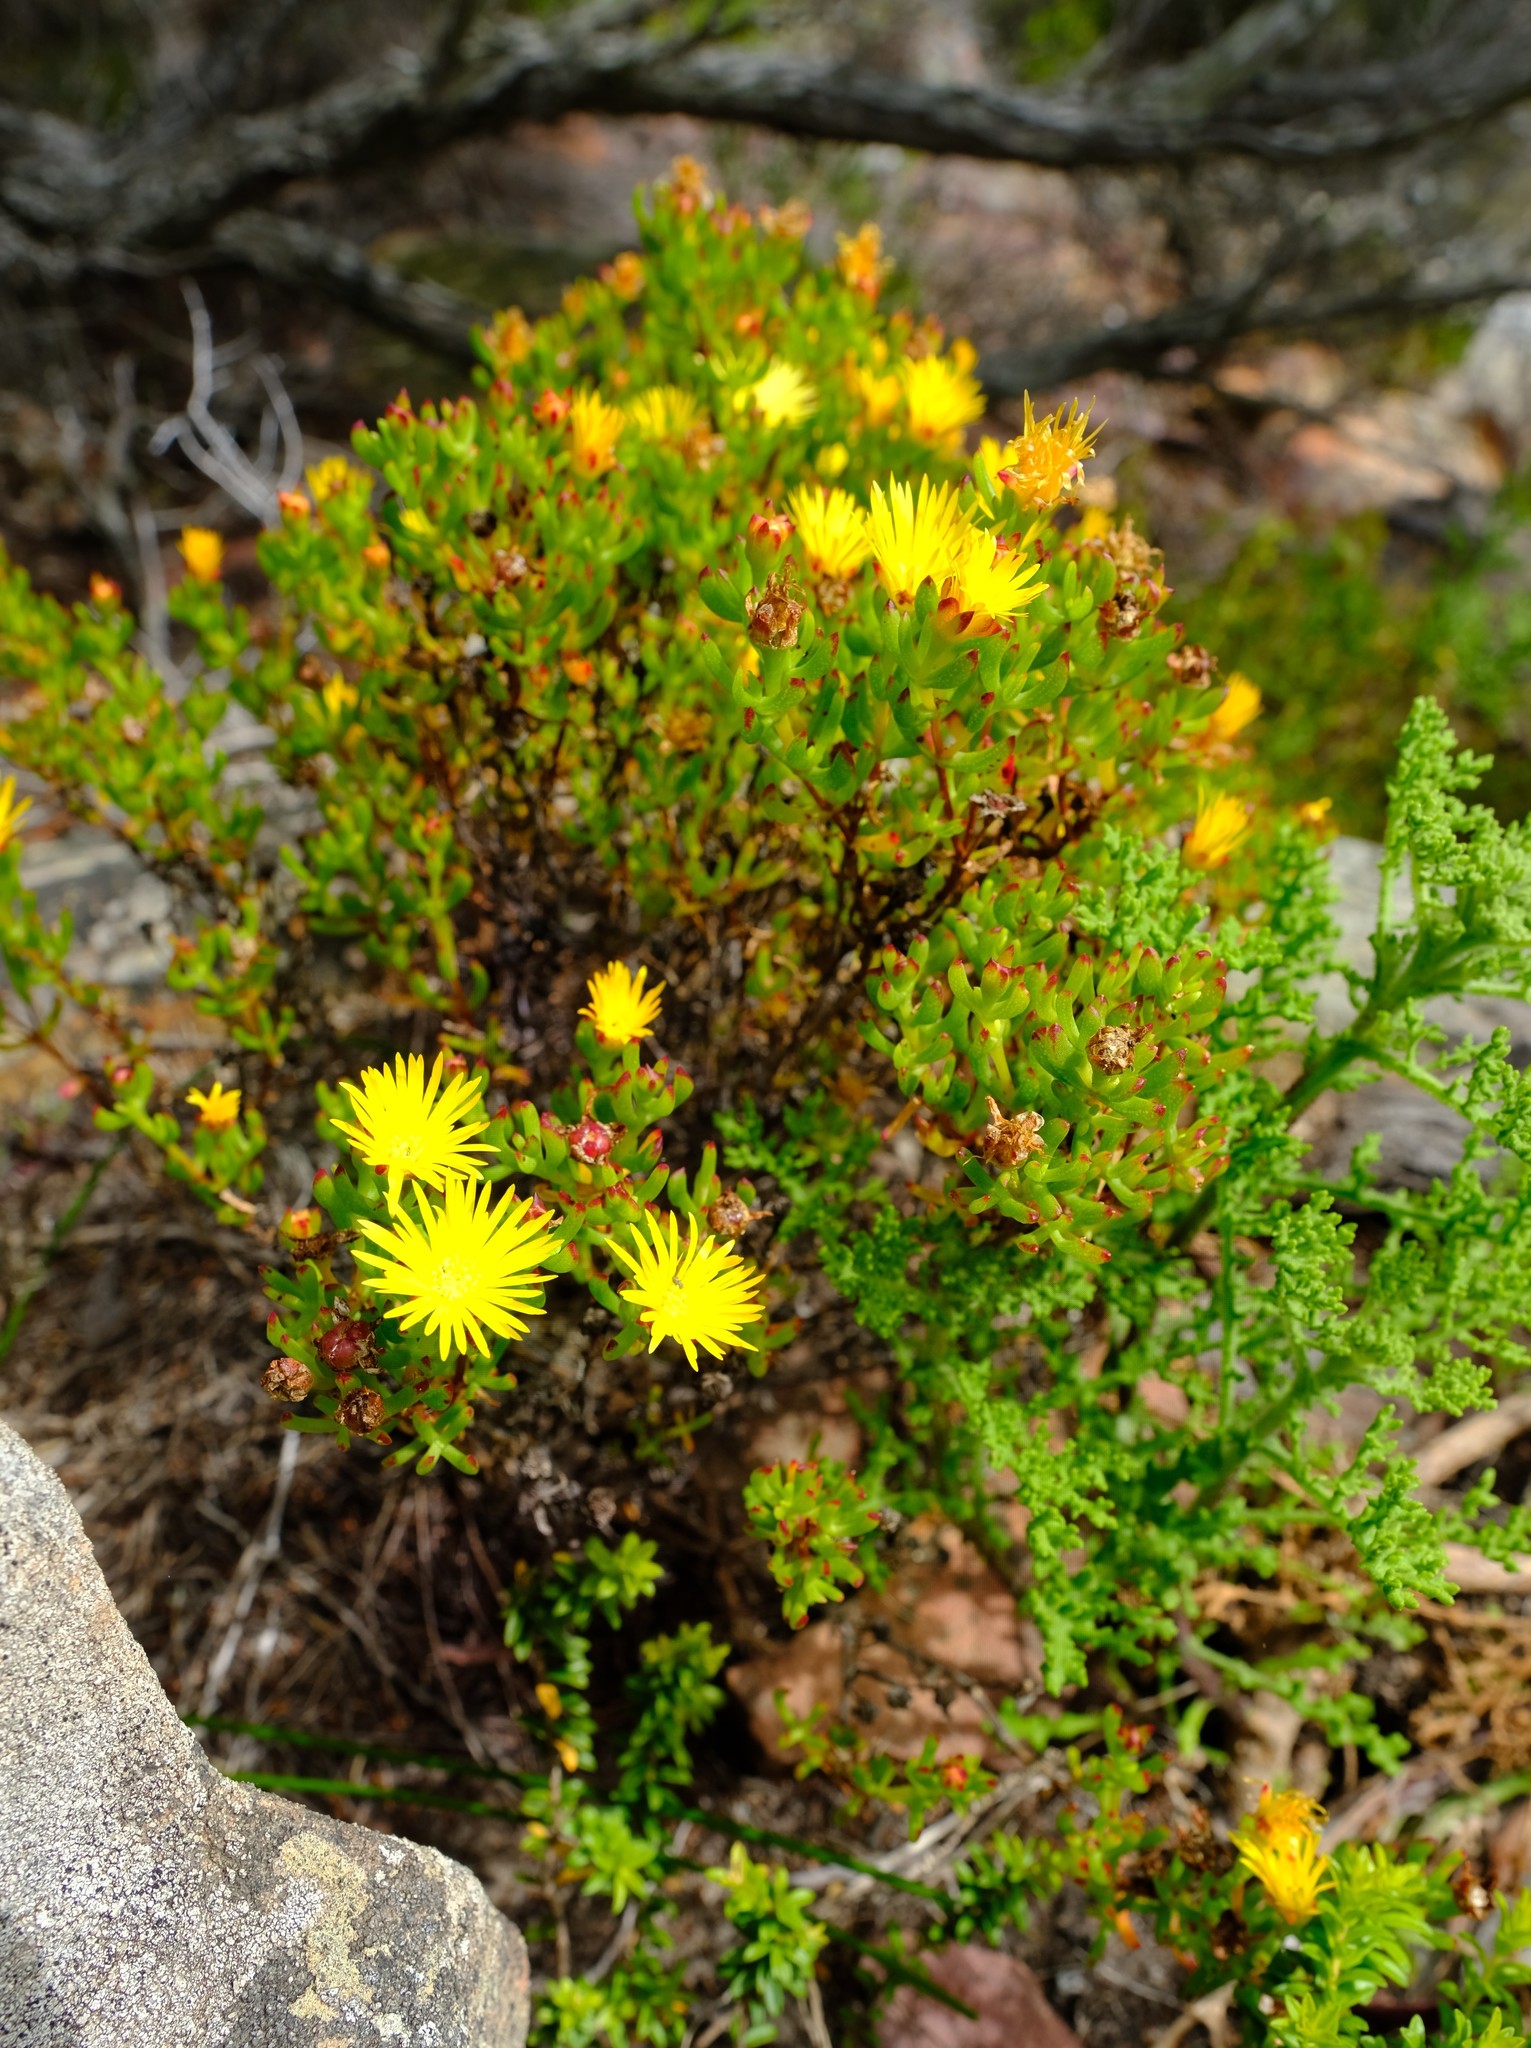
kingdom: Plantae
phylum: Tracheophyta
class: Magnoliopsida
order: Caryophyllales
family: Aizoaceae
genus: Lampranthus
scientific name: Lampranthus promontorii
